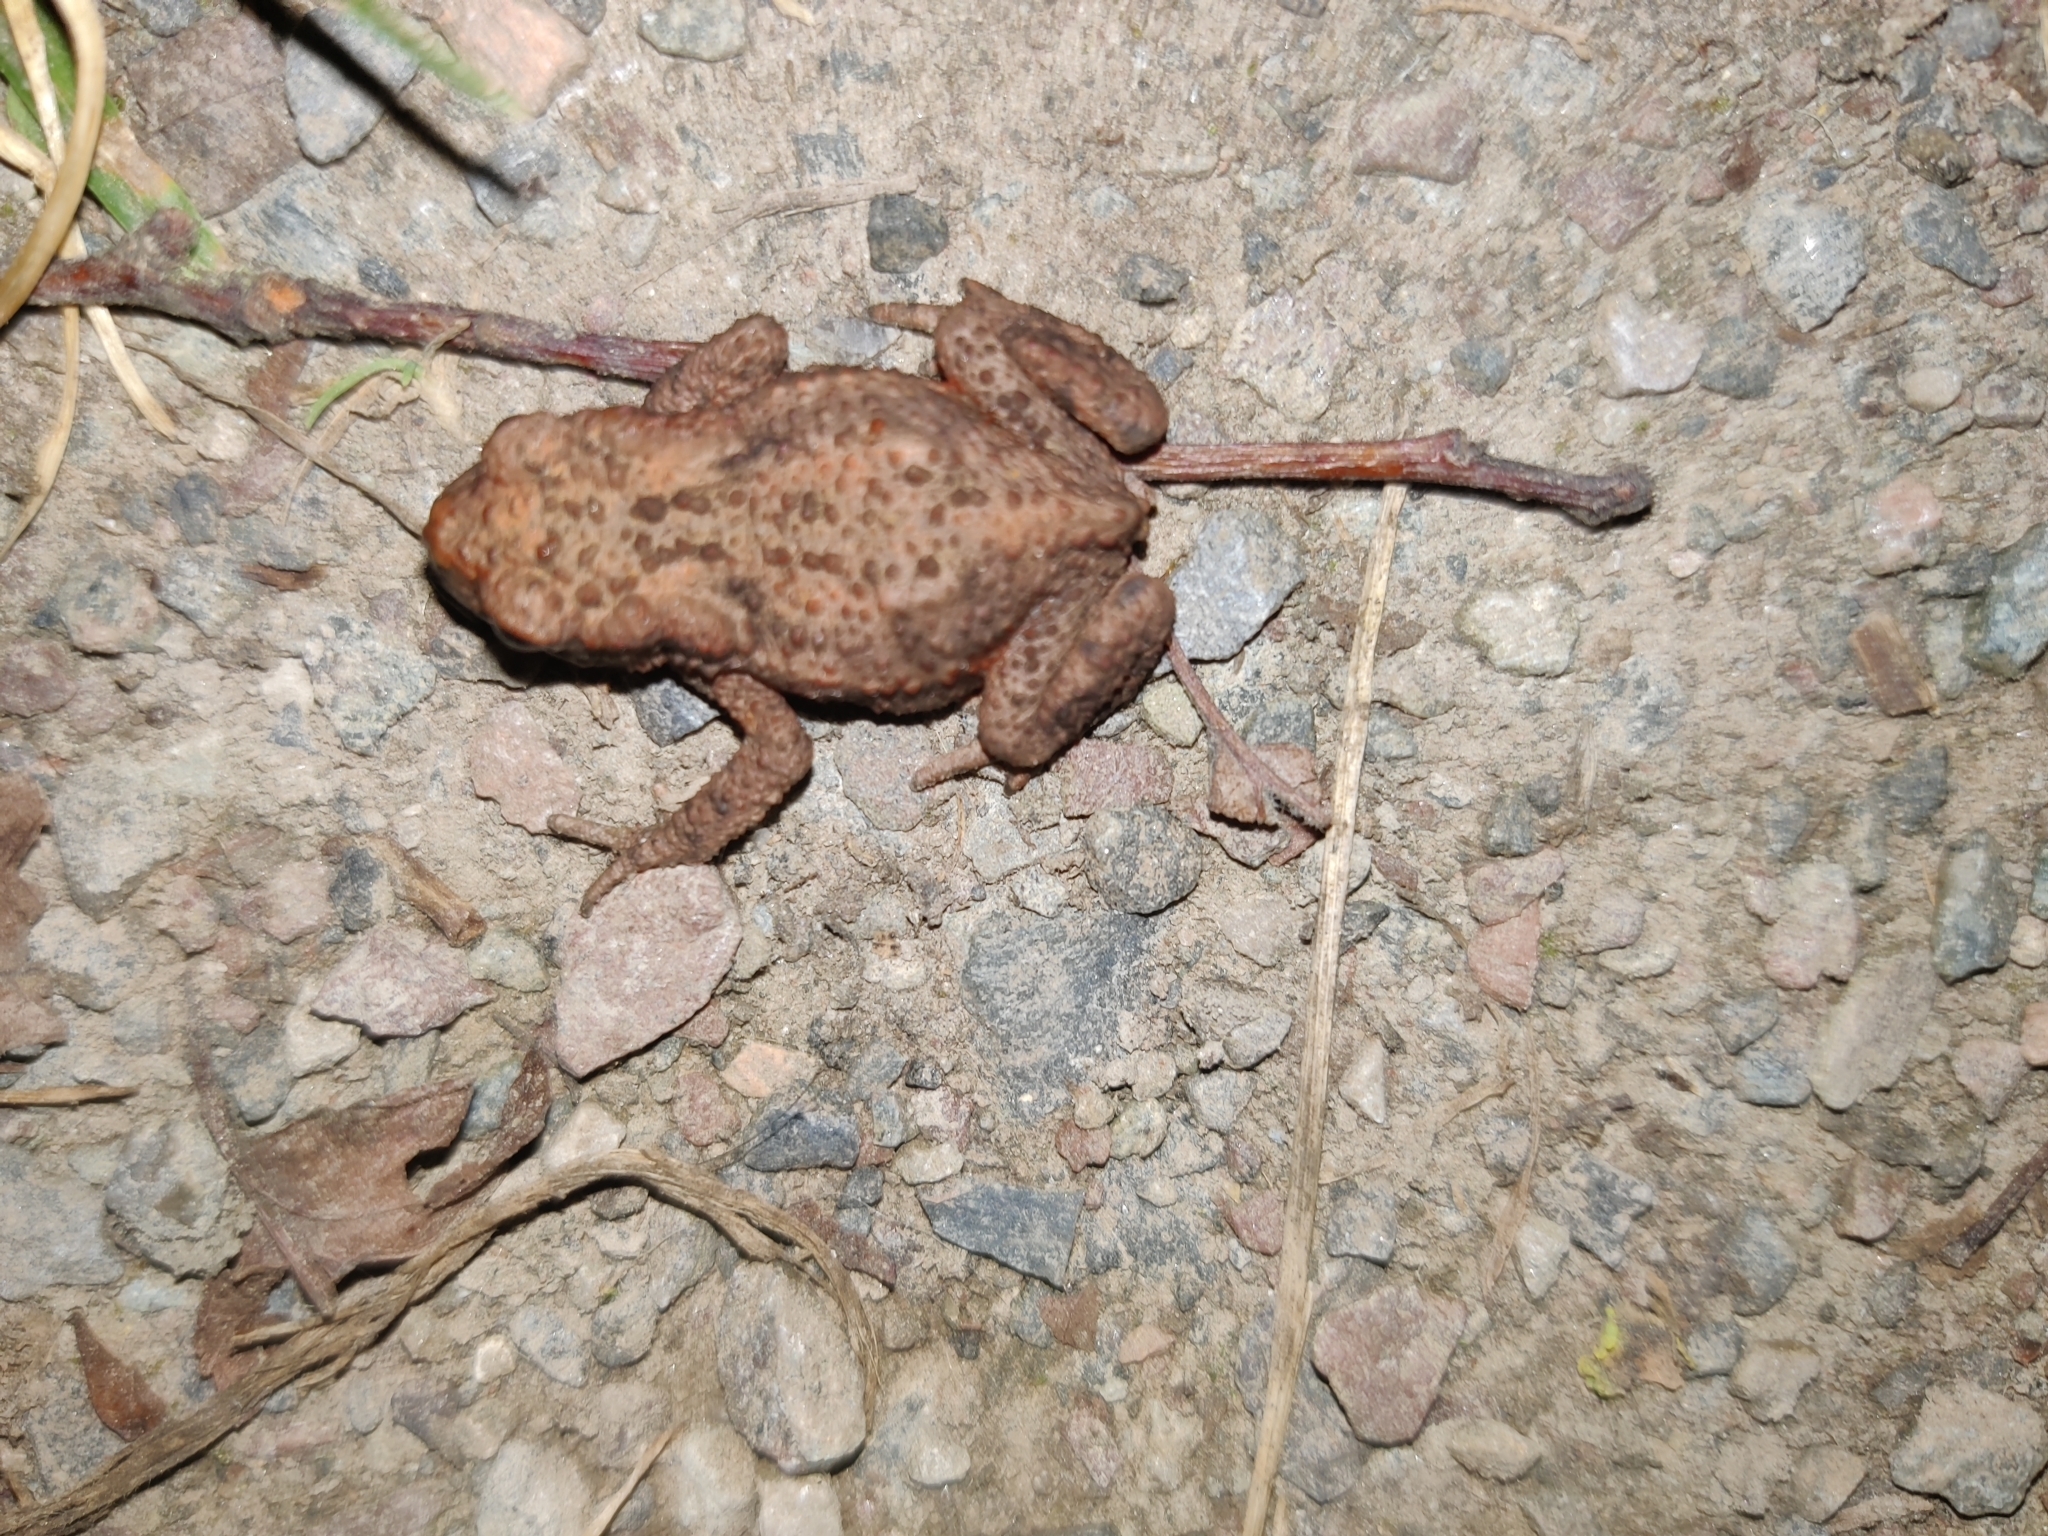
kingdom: Animalia
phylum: Chordata
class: Amphibia
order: Anura
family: Bufonidae
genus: Bufo
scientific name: Bufo bufo
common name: Common toad
